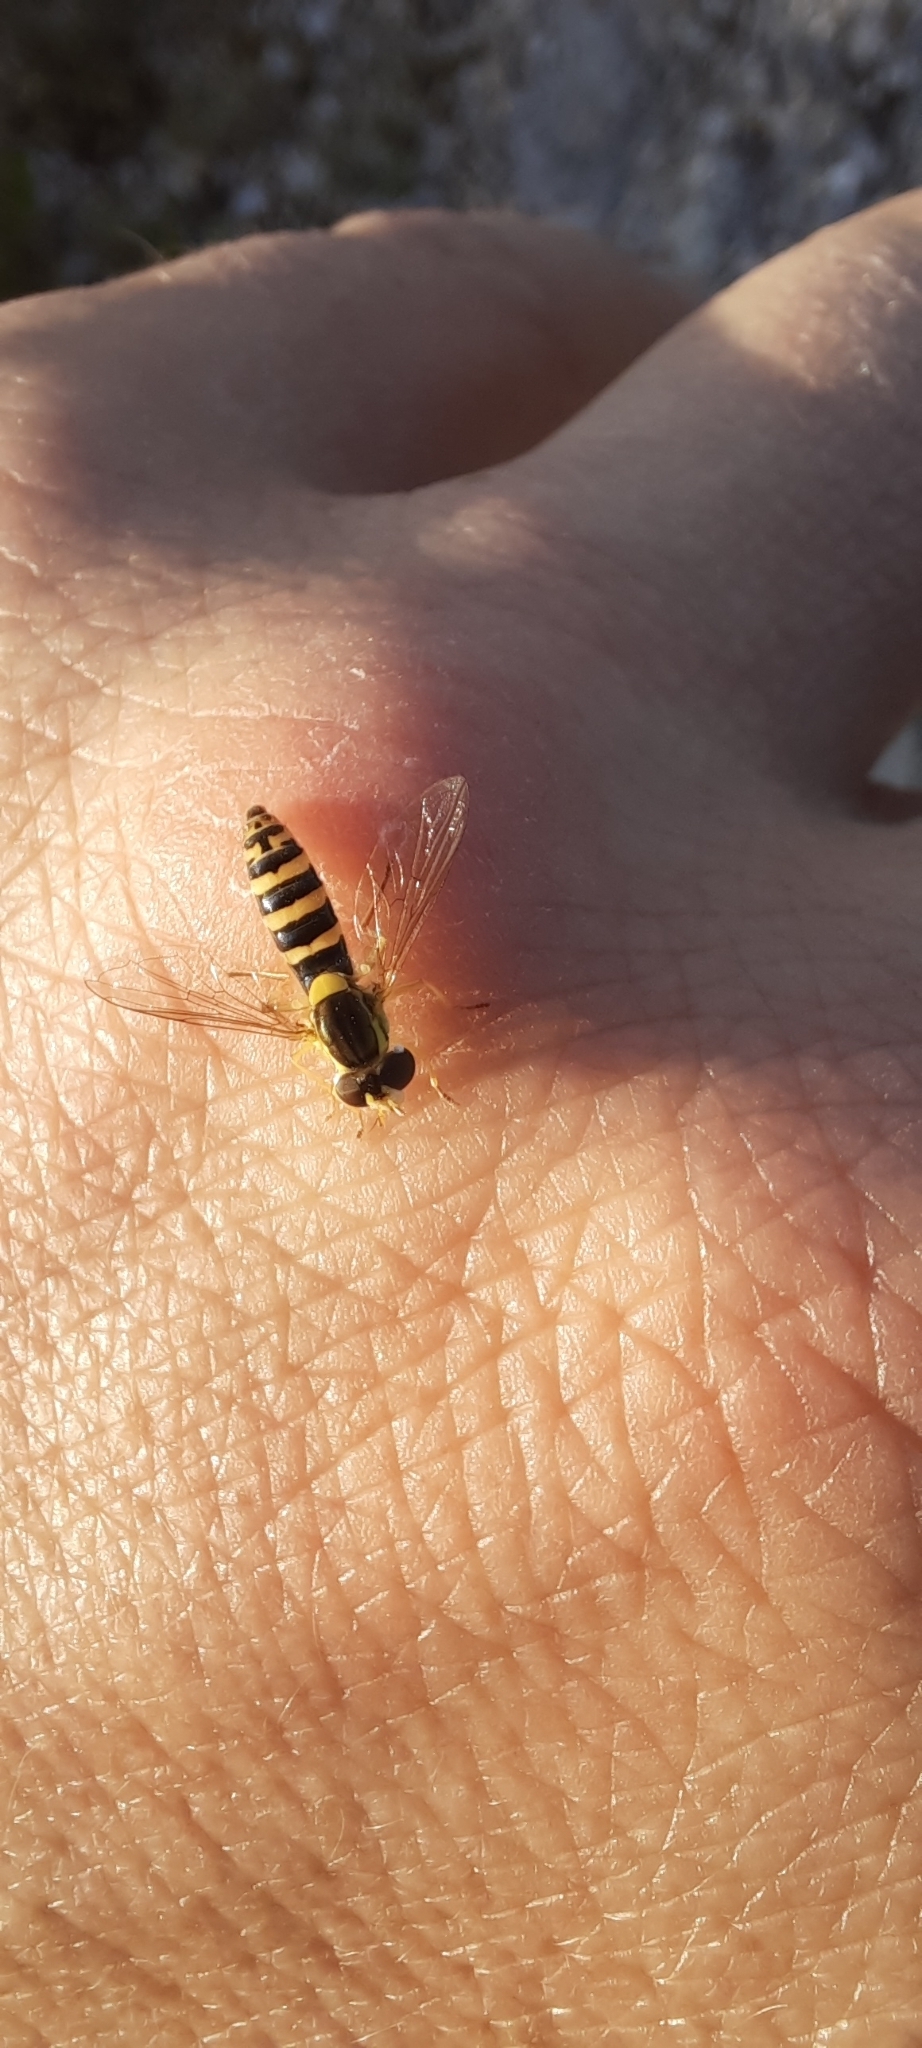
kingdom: Animalia
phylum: Arthropoda
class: Insecta
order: Diptera
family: Syrphidae
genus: Sphaerophoria
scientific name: Sphaerophoria
